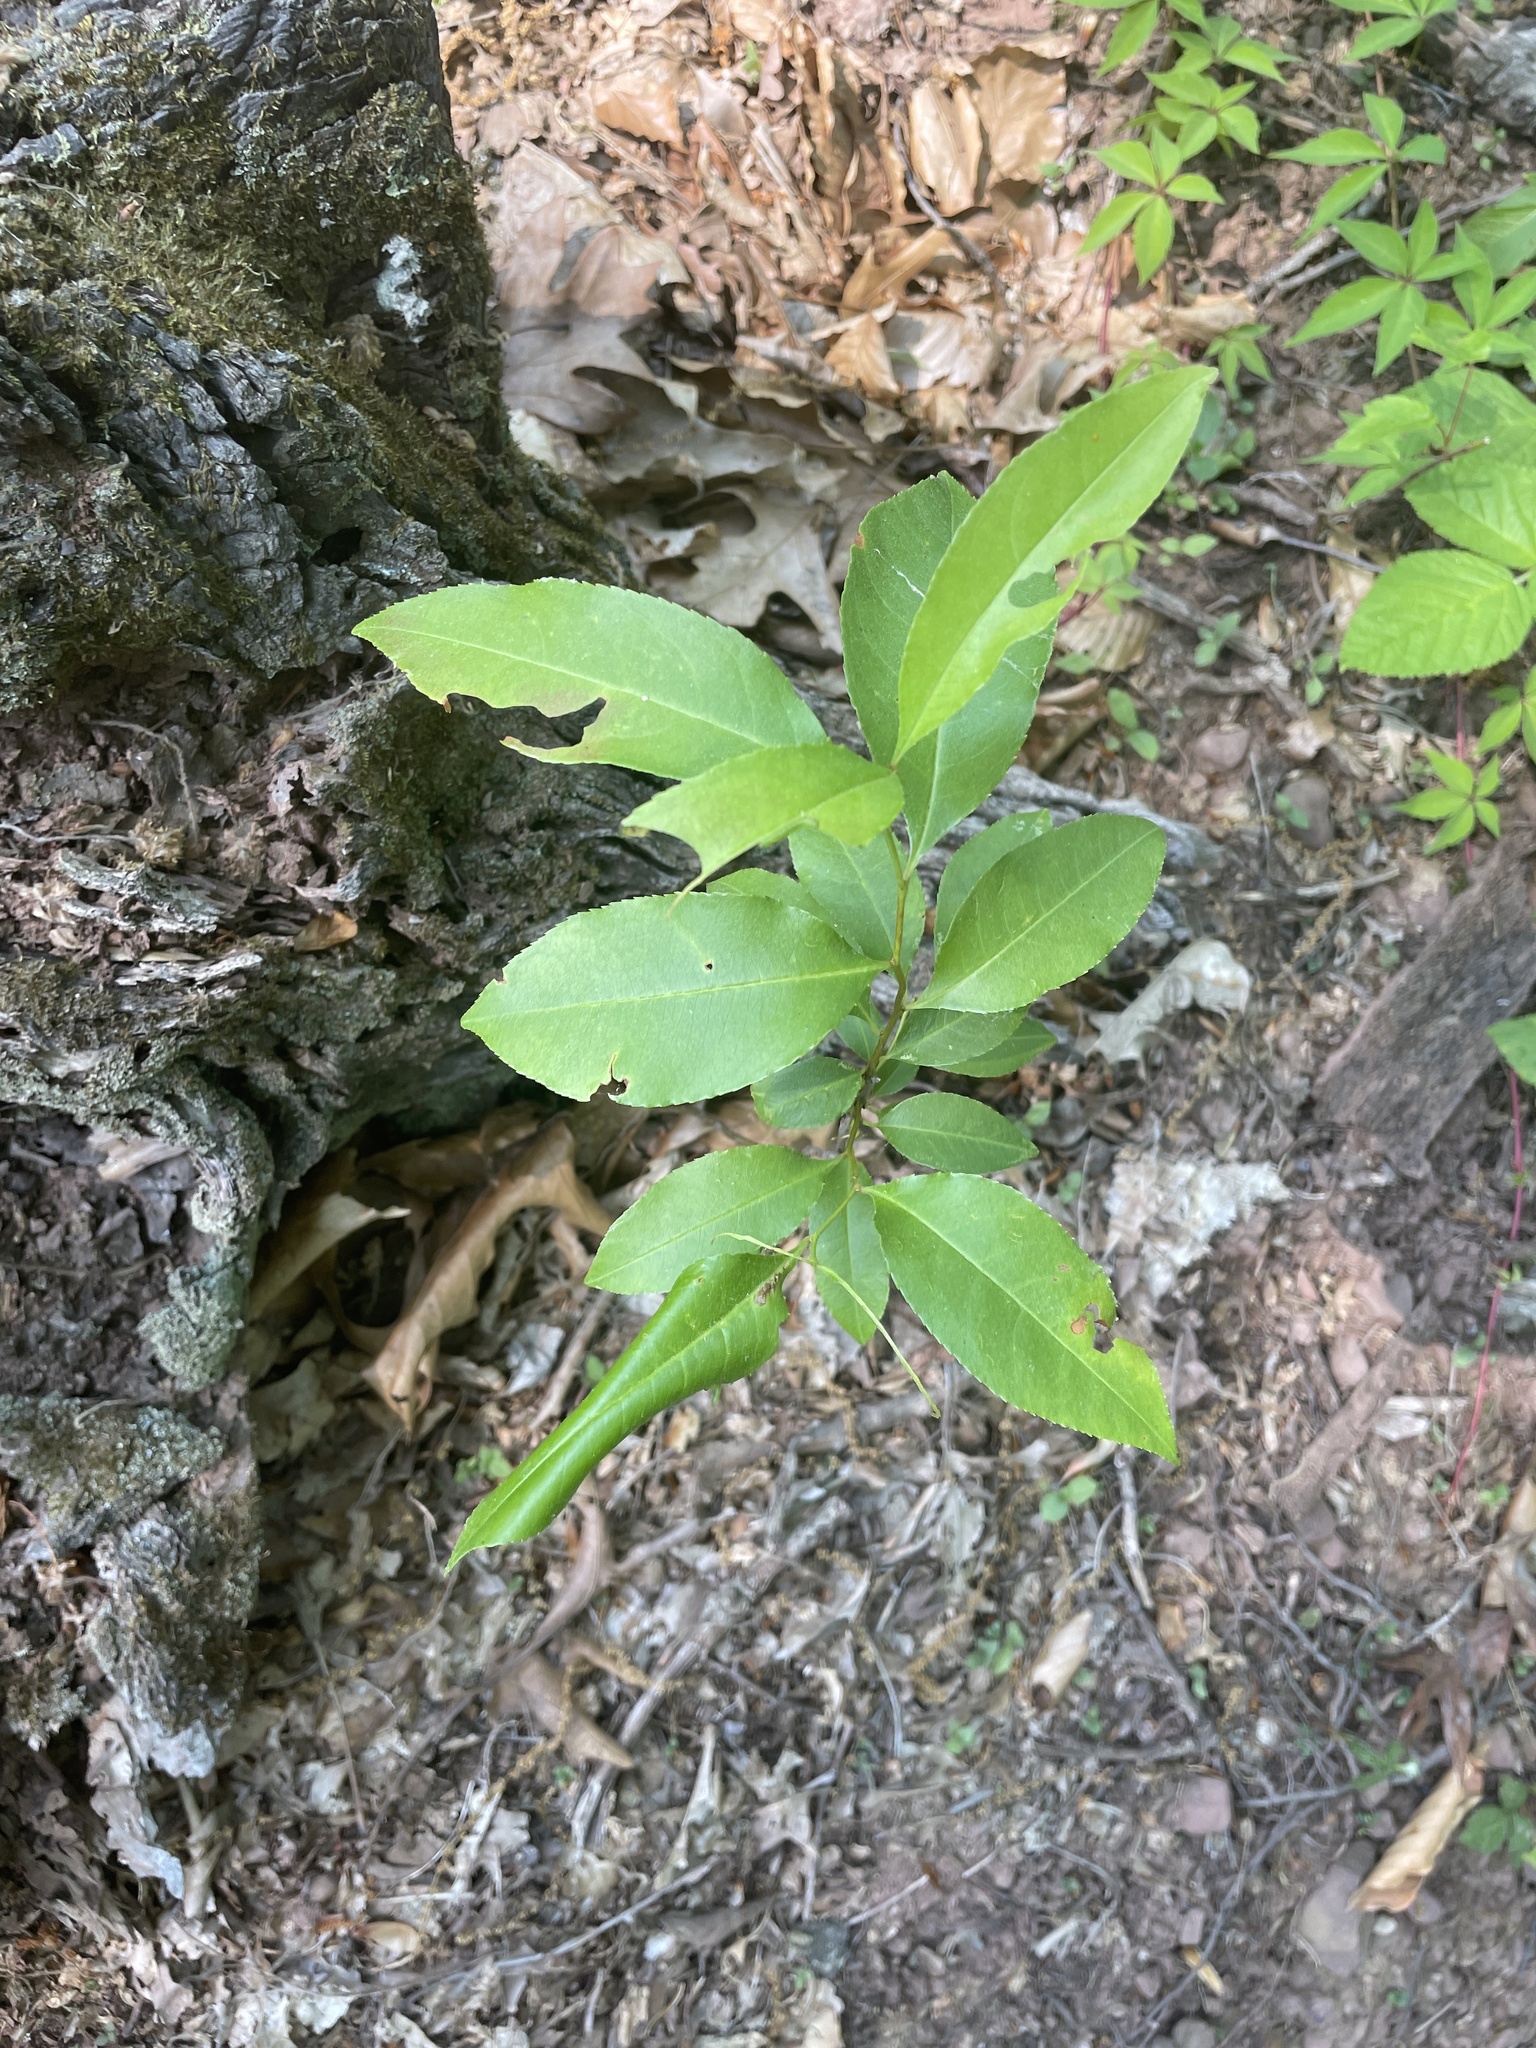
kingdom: Plantae
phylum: Tracheophyta
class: Magnoliopsida
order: Rosales
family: Rosaceae
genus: Prunus
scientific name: Prunus serotina
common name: Black cherry
